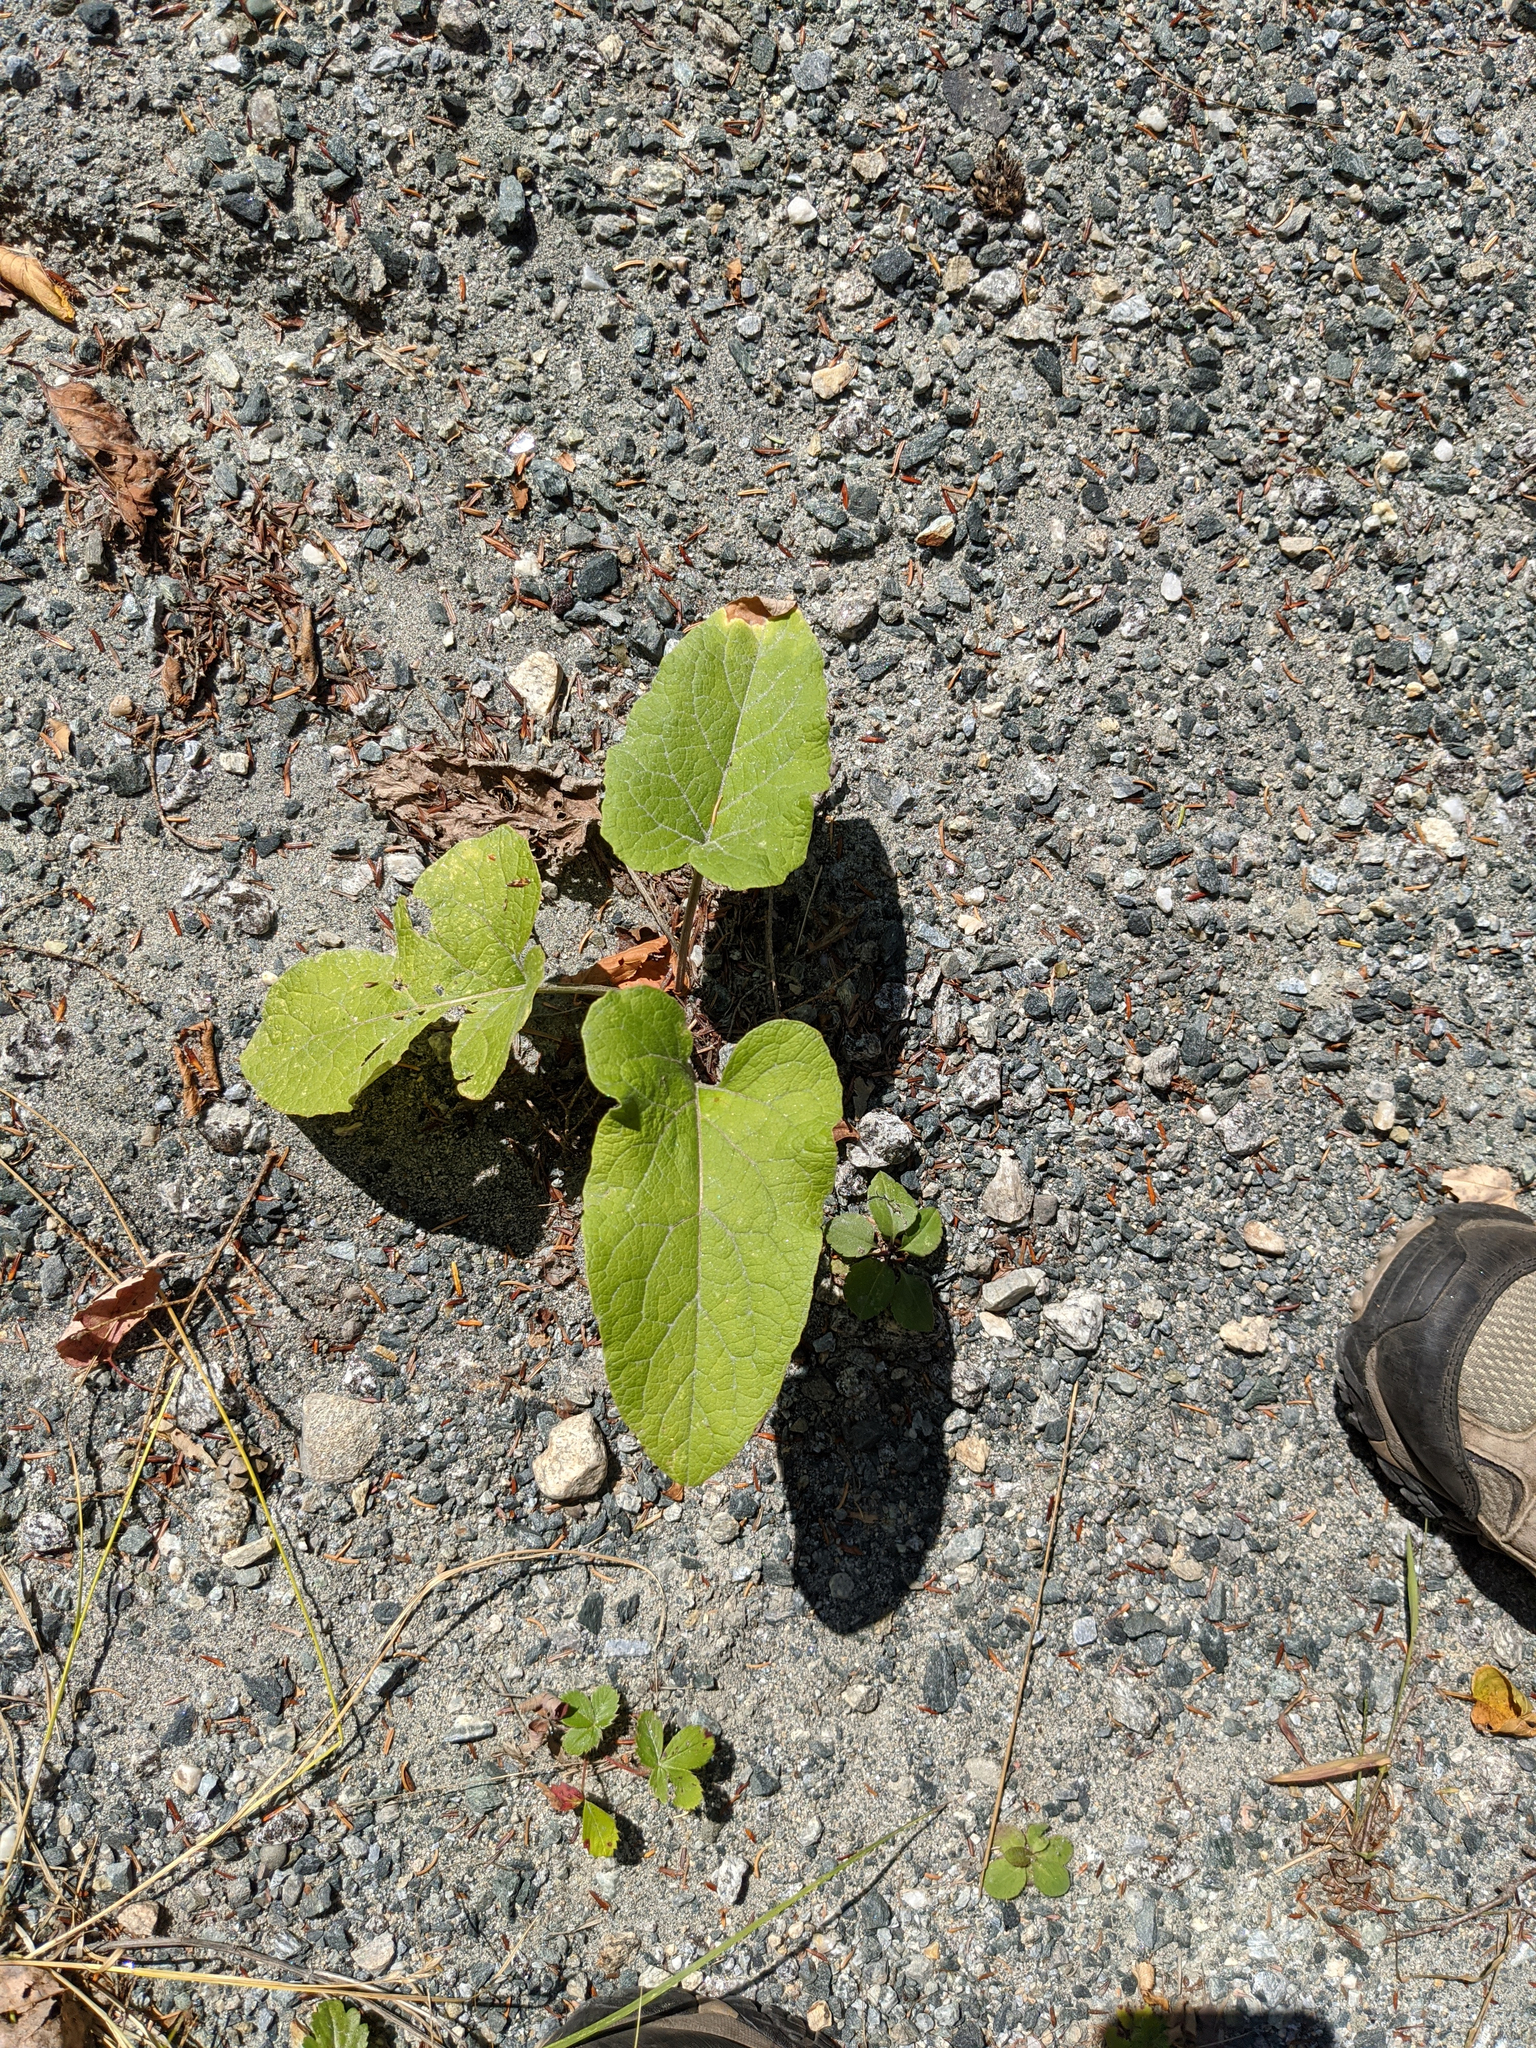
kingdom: Plantae
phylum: Tracheophyta
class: Magnoliopsida
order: Asterales
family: Asteraceae
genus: Arctium
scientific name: Arctium
